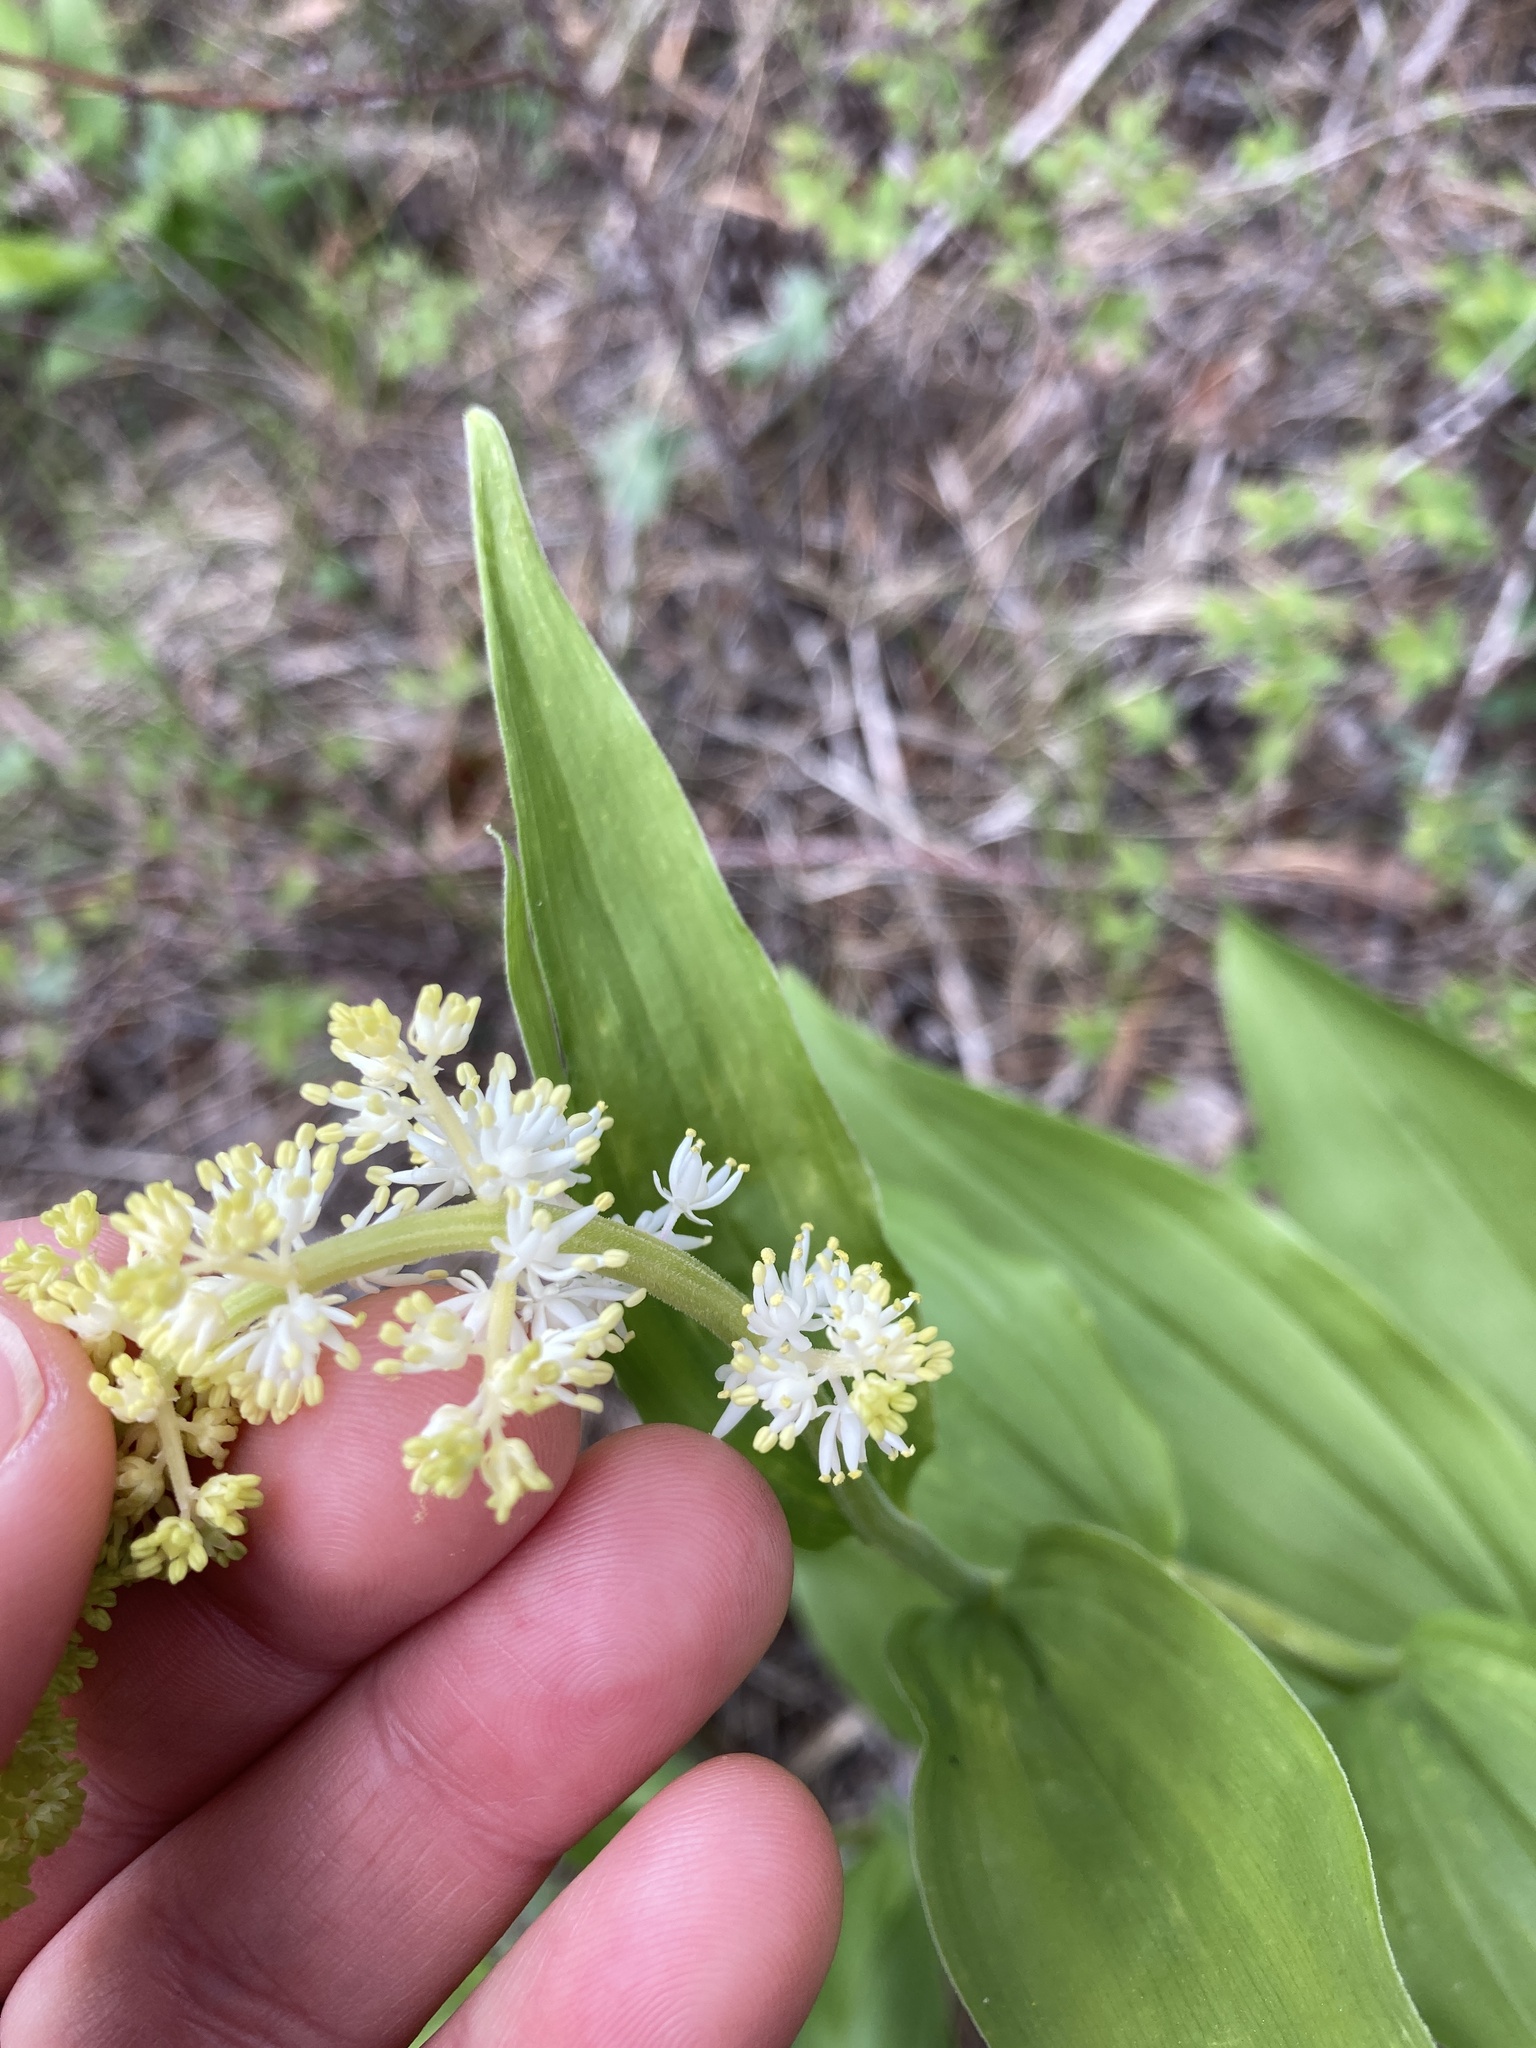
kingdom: Plantae
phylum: Tracheophyta
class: Liliopsida
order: Asparagales
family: Asparagaceae
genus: Maianthemum
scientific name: Maianthemum racemosum
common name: False spikenard
